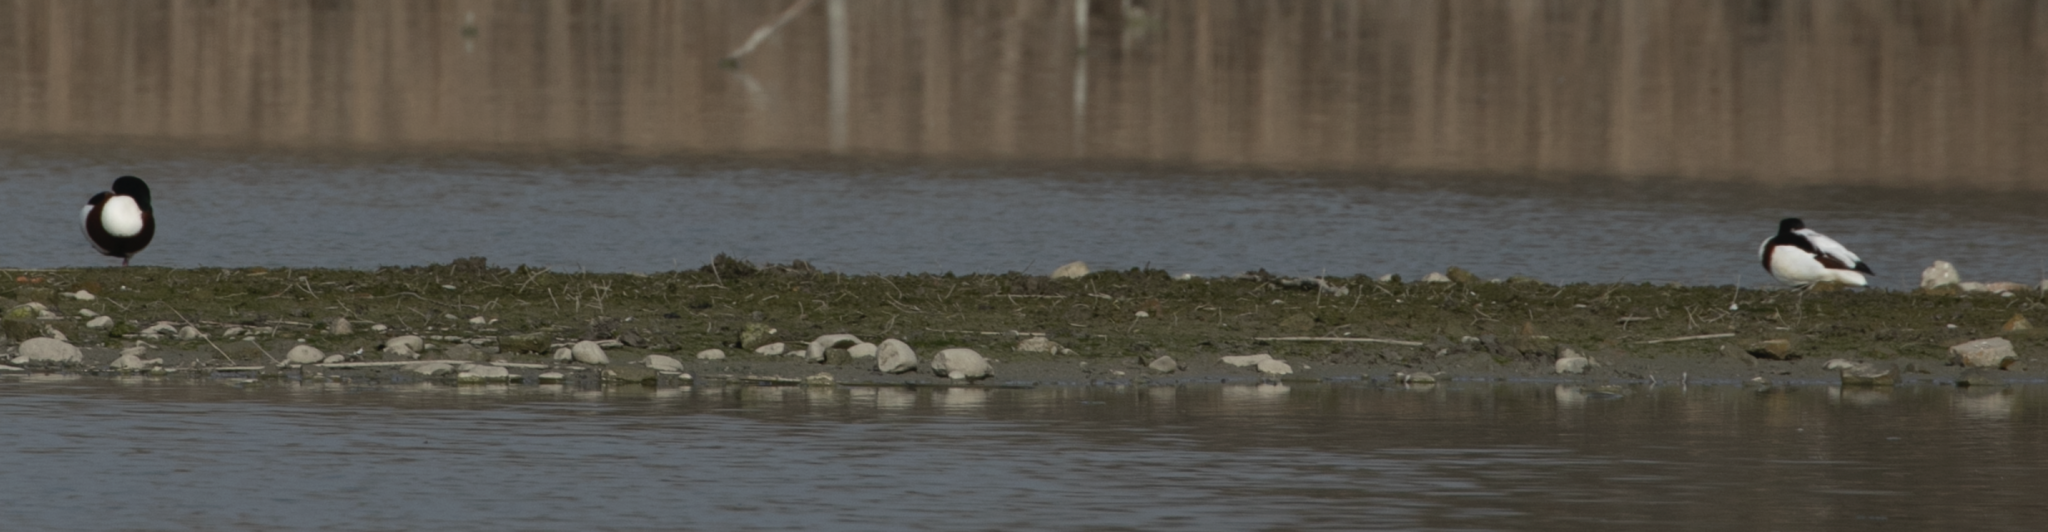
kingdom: Animalia
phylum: Chordata
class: Aves
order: Anseriformes
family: Anatidae
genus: Tadorna
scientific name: Tadorna tadorna
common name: Common shelduck
